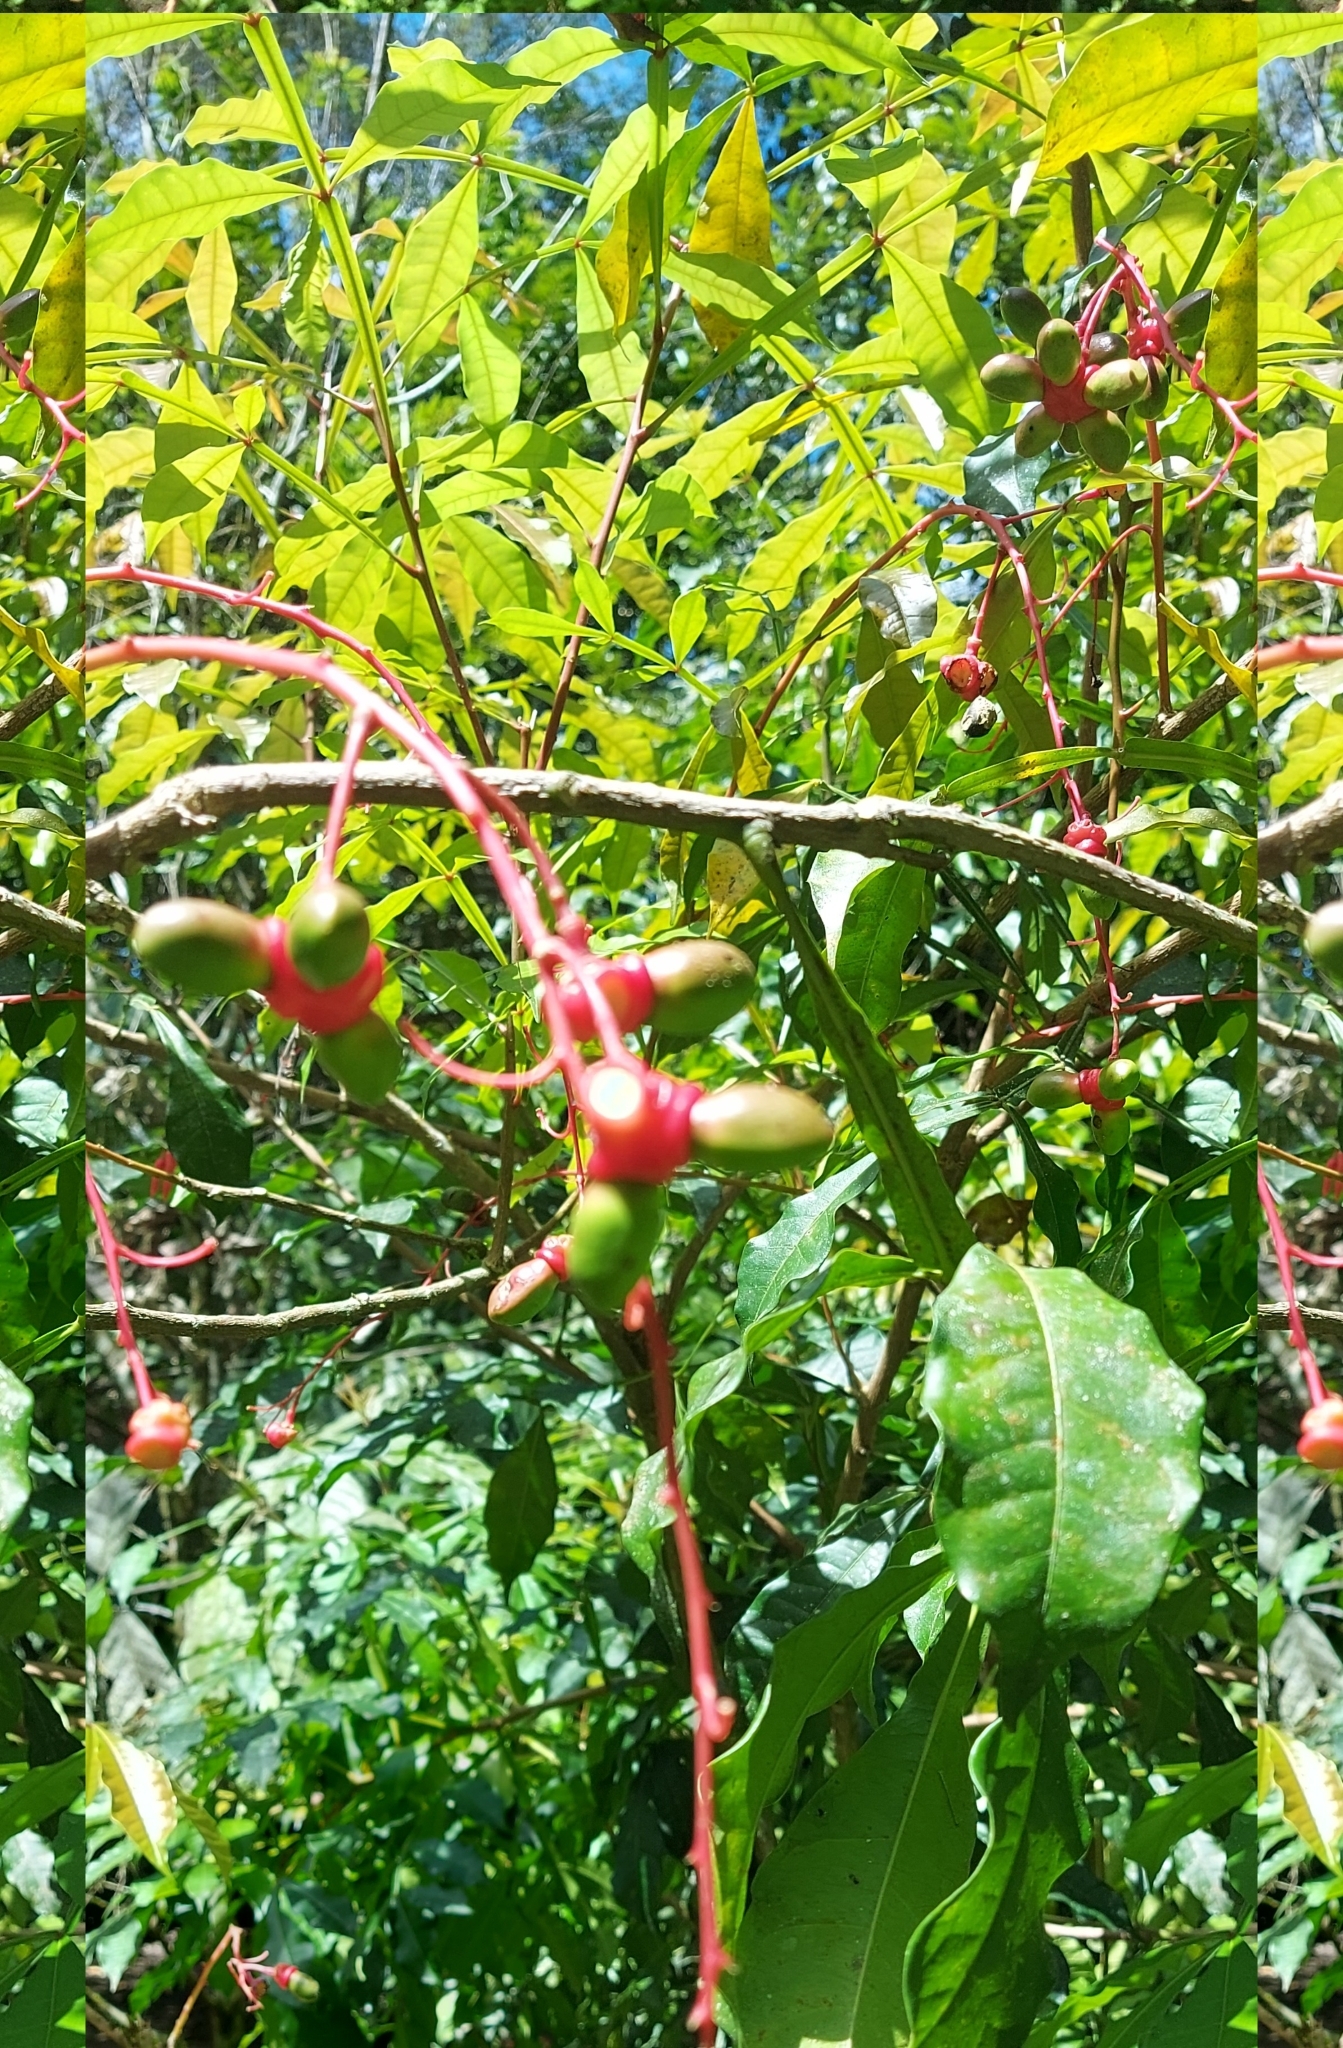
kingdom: Plantae
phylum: Tracheophyta
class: Magnoliopsida
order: Sapindales
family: Simaroubaceae
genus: Quassia
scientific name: Quassia amara
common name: Quassia
